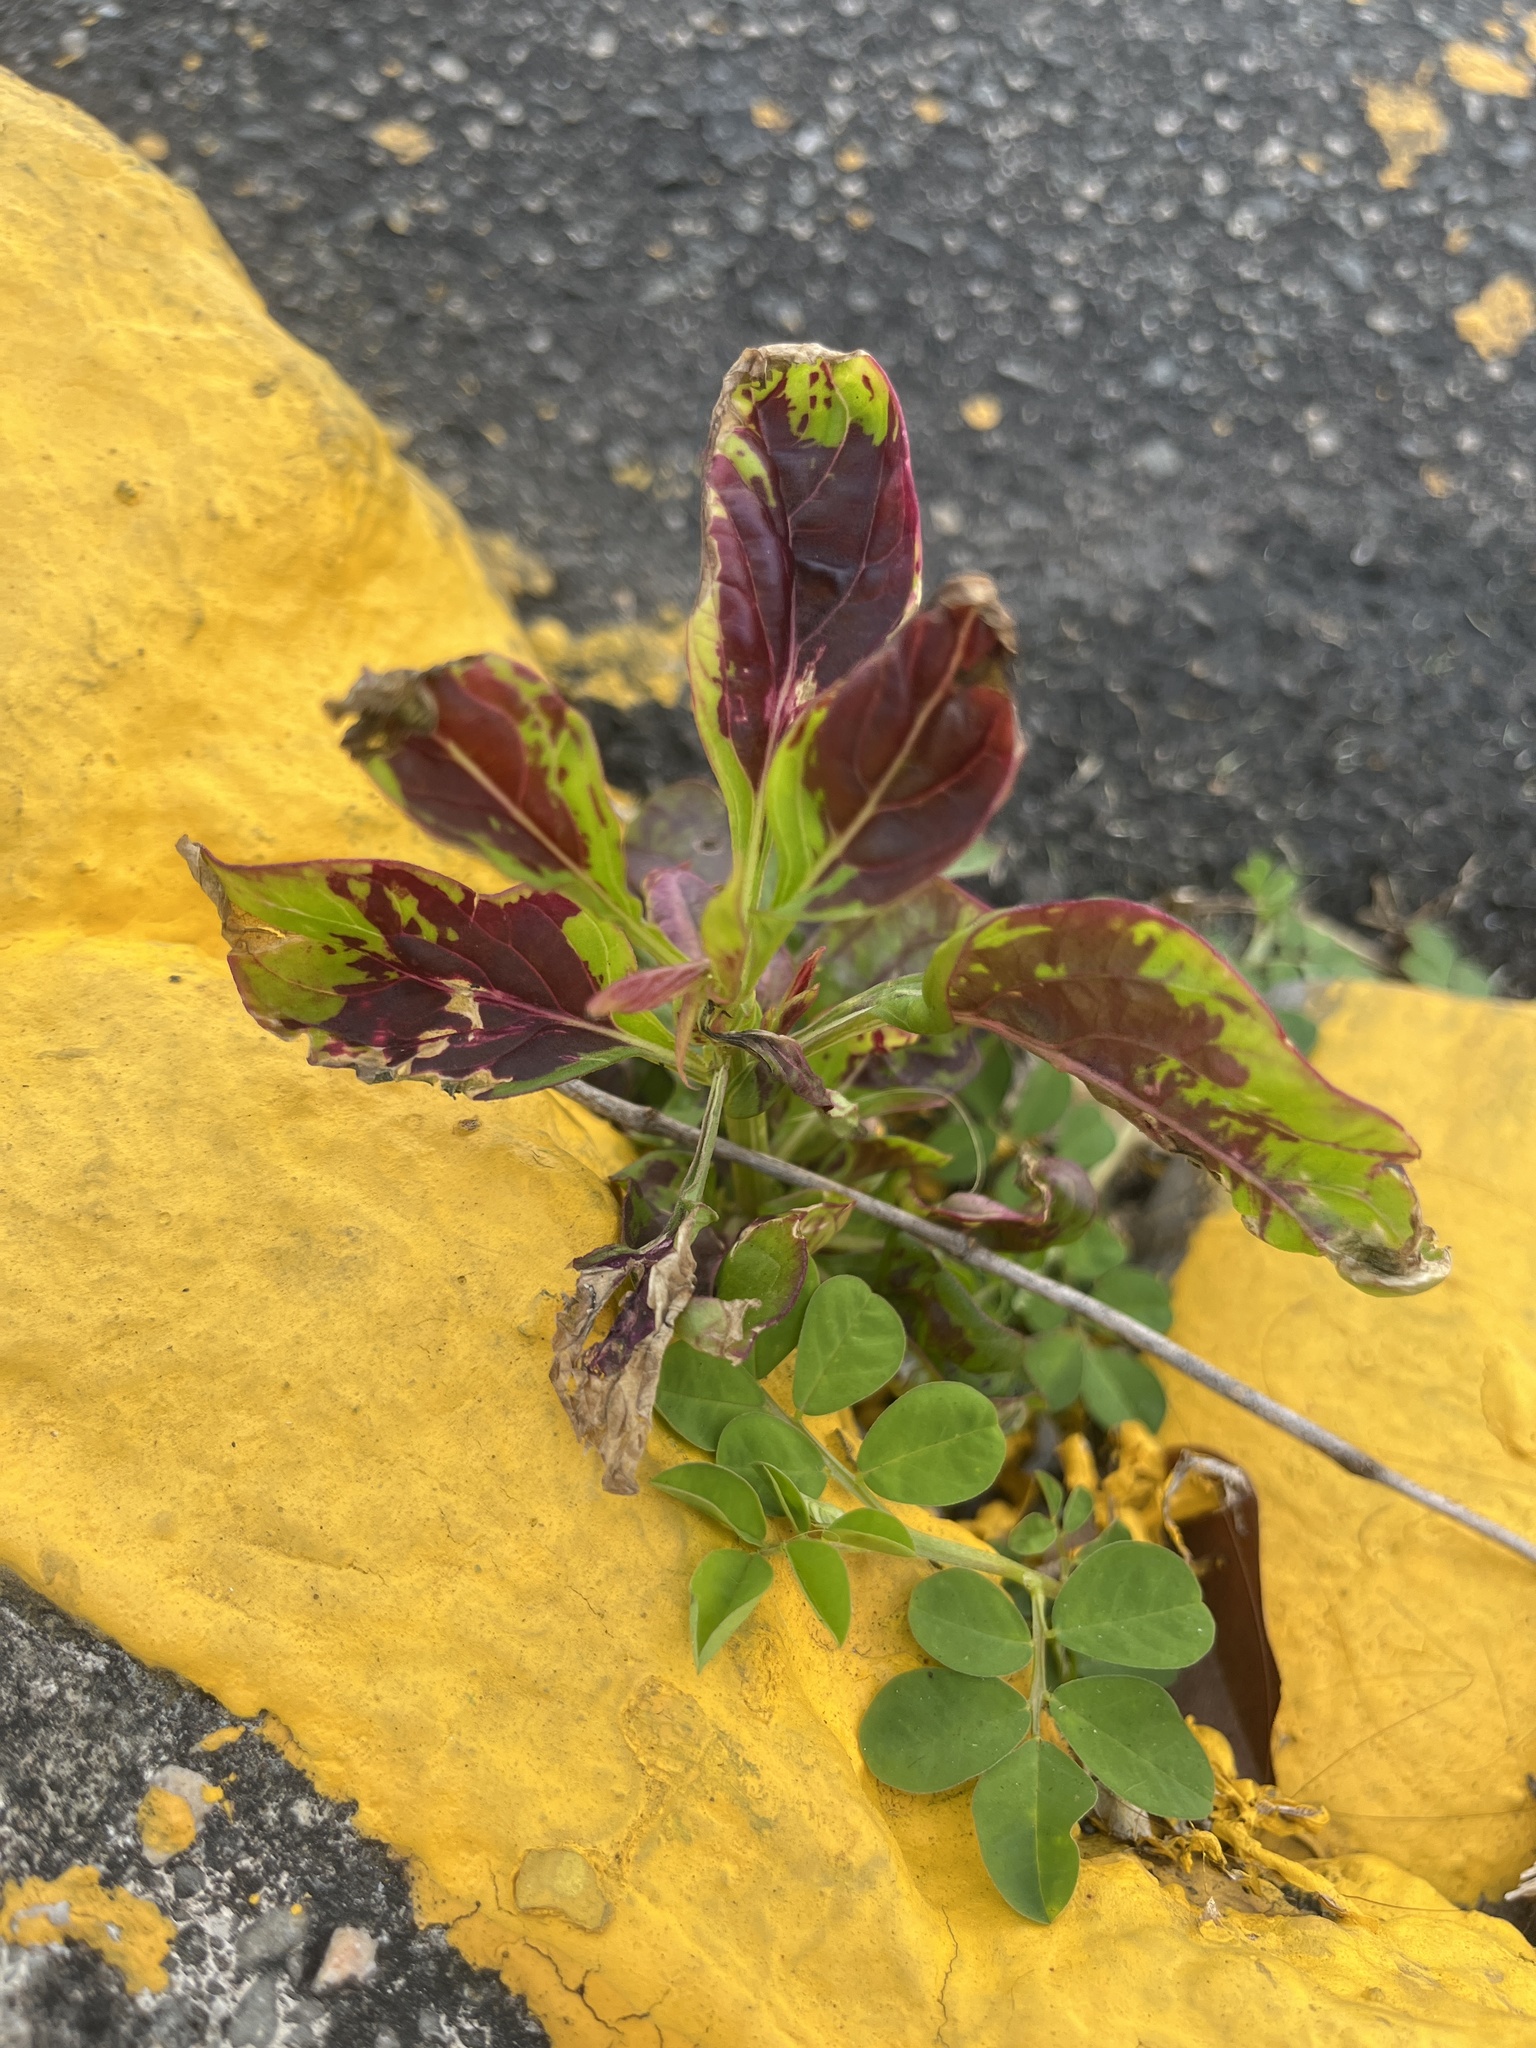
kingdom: Plantae
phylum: Tracheophyta
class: Magnoliopsida
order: Caryophyllales
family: Amaranthaceae
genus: Celosia
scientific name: Celosia argentea
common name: Feather cockscomb
